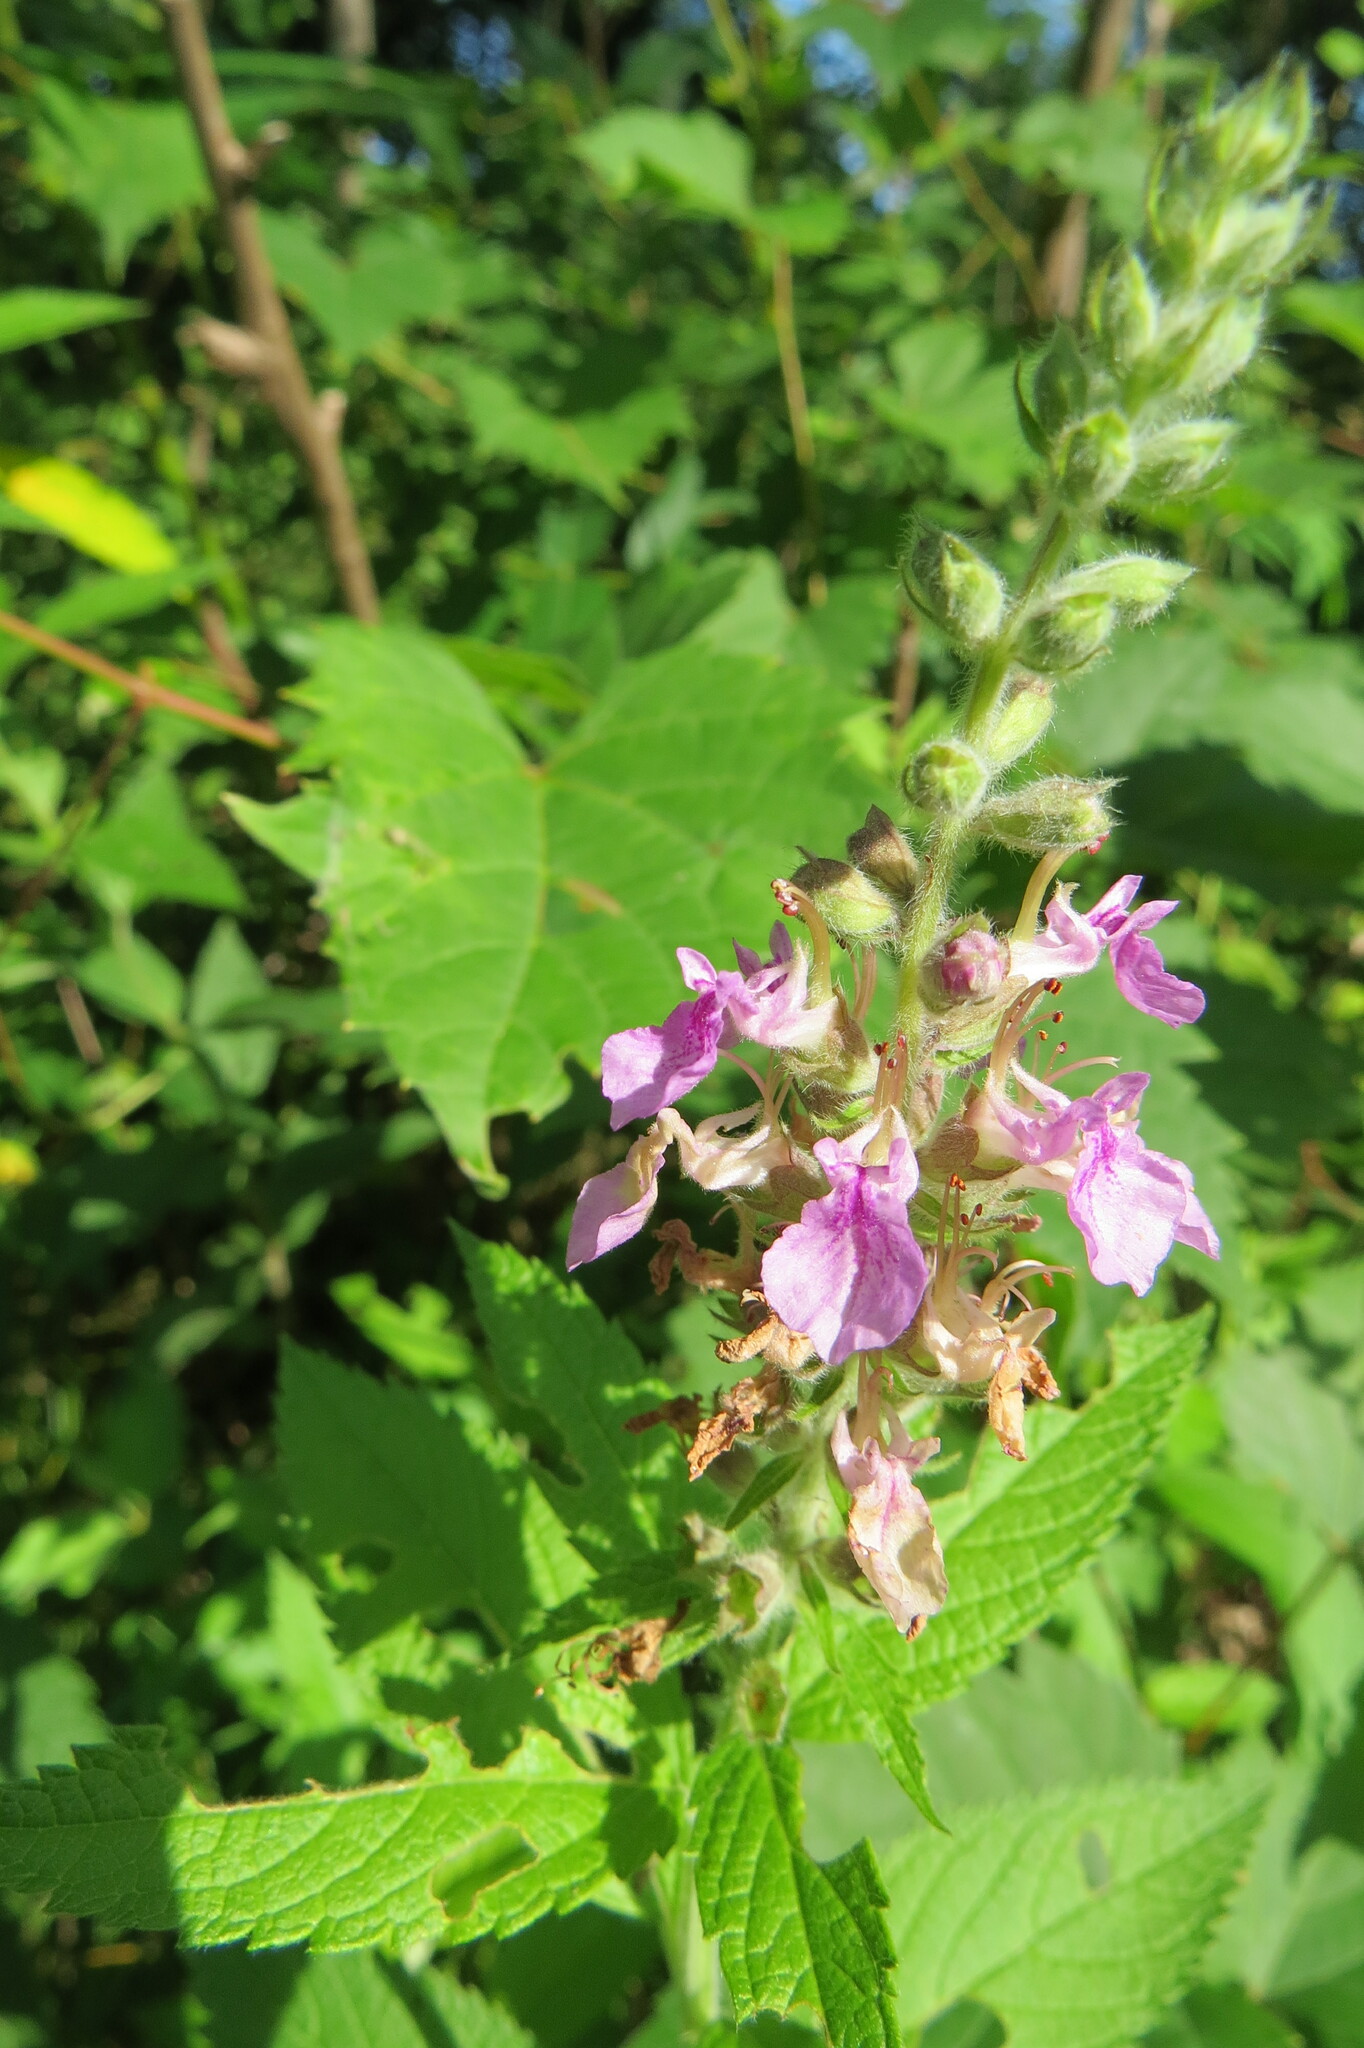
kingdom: Plantae
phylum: Tracheophyta
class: Magnoliopsida
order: Lamiales
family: Lamiaceae
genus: Teucrium
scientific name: Teucrium canadense
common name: American germander
